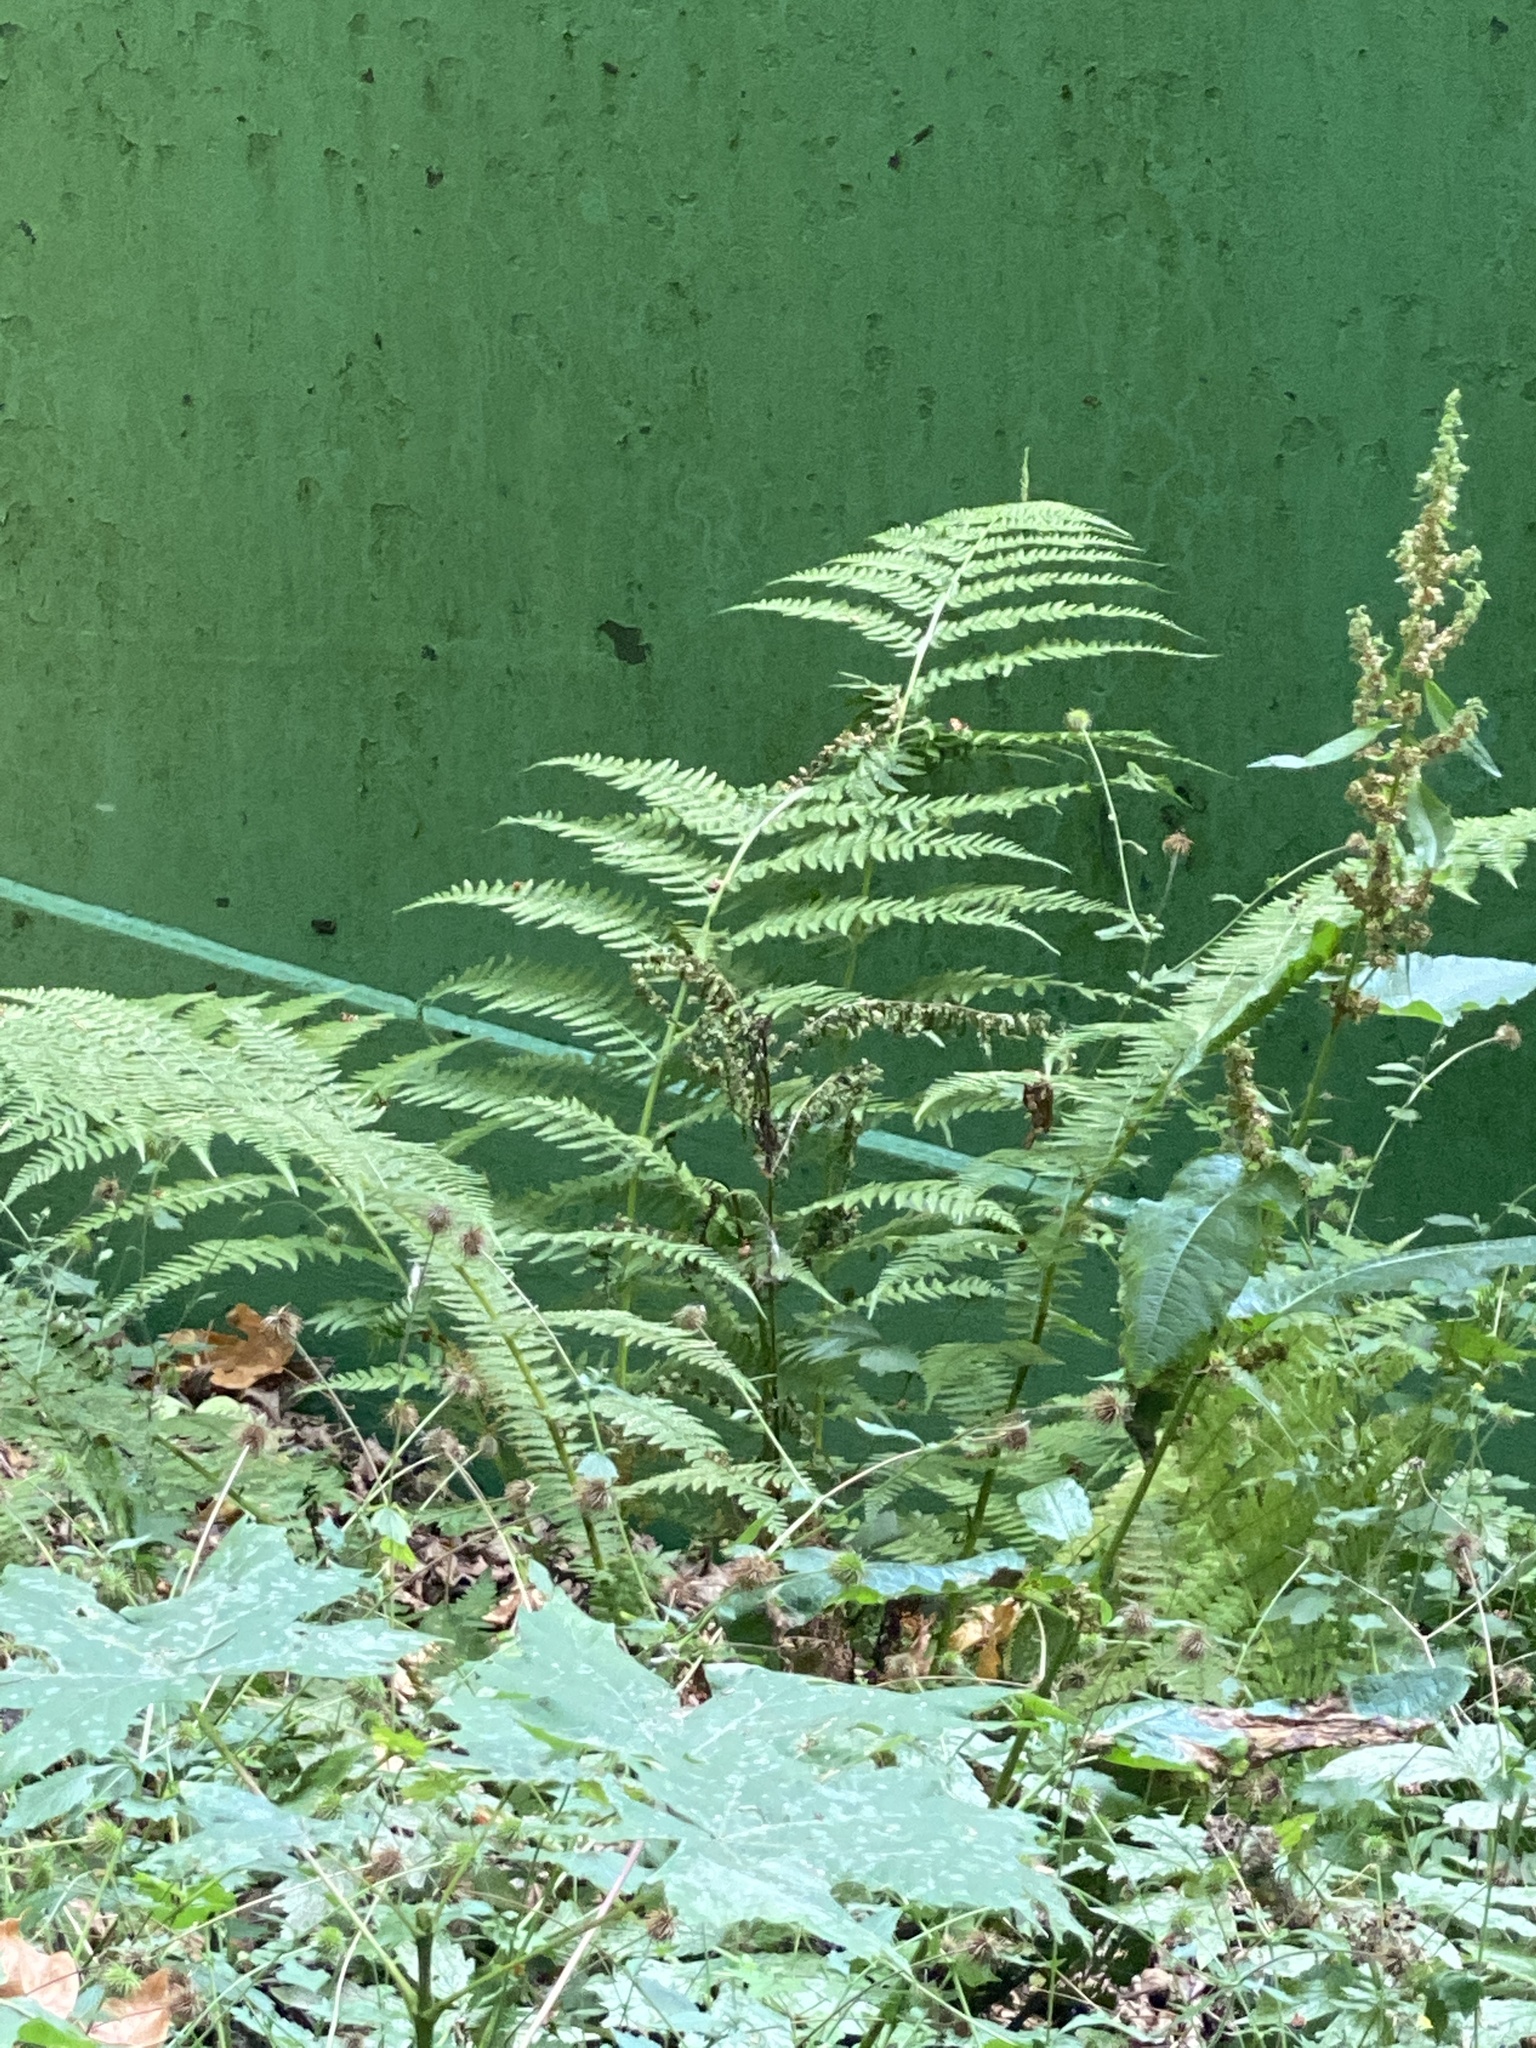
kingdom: Plantae
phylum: Tracheophyta
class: Polypodiopsida
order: Polypodiales
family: Dennstaedtiaceae
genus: Pteridium
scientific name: Pteridium aquilinum
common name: Bracken
